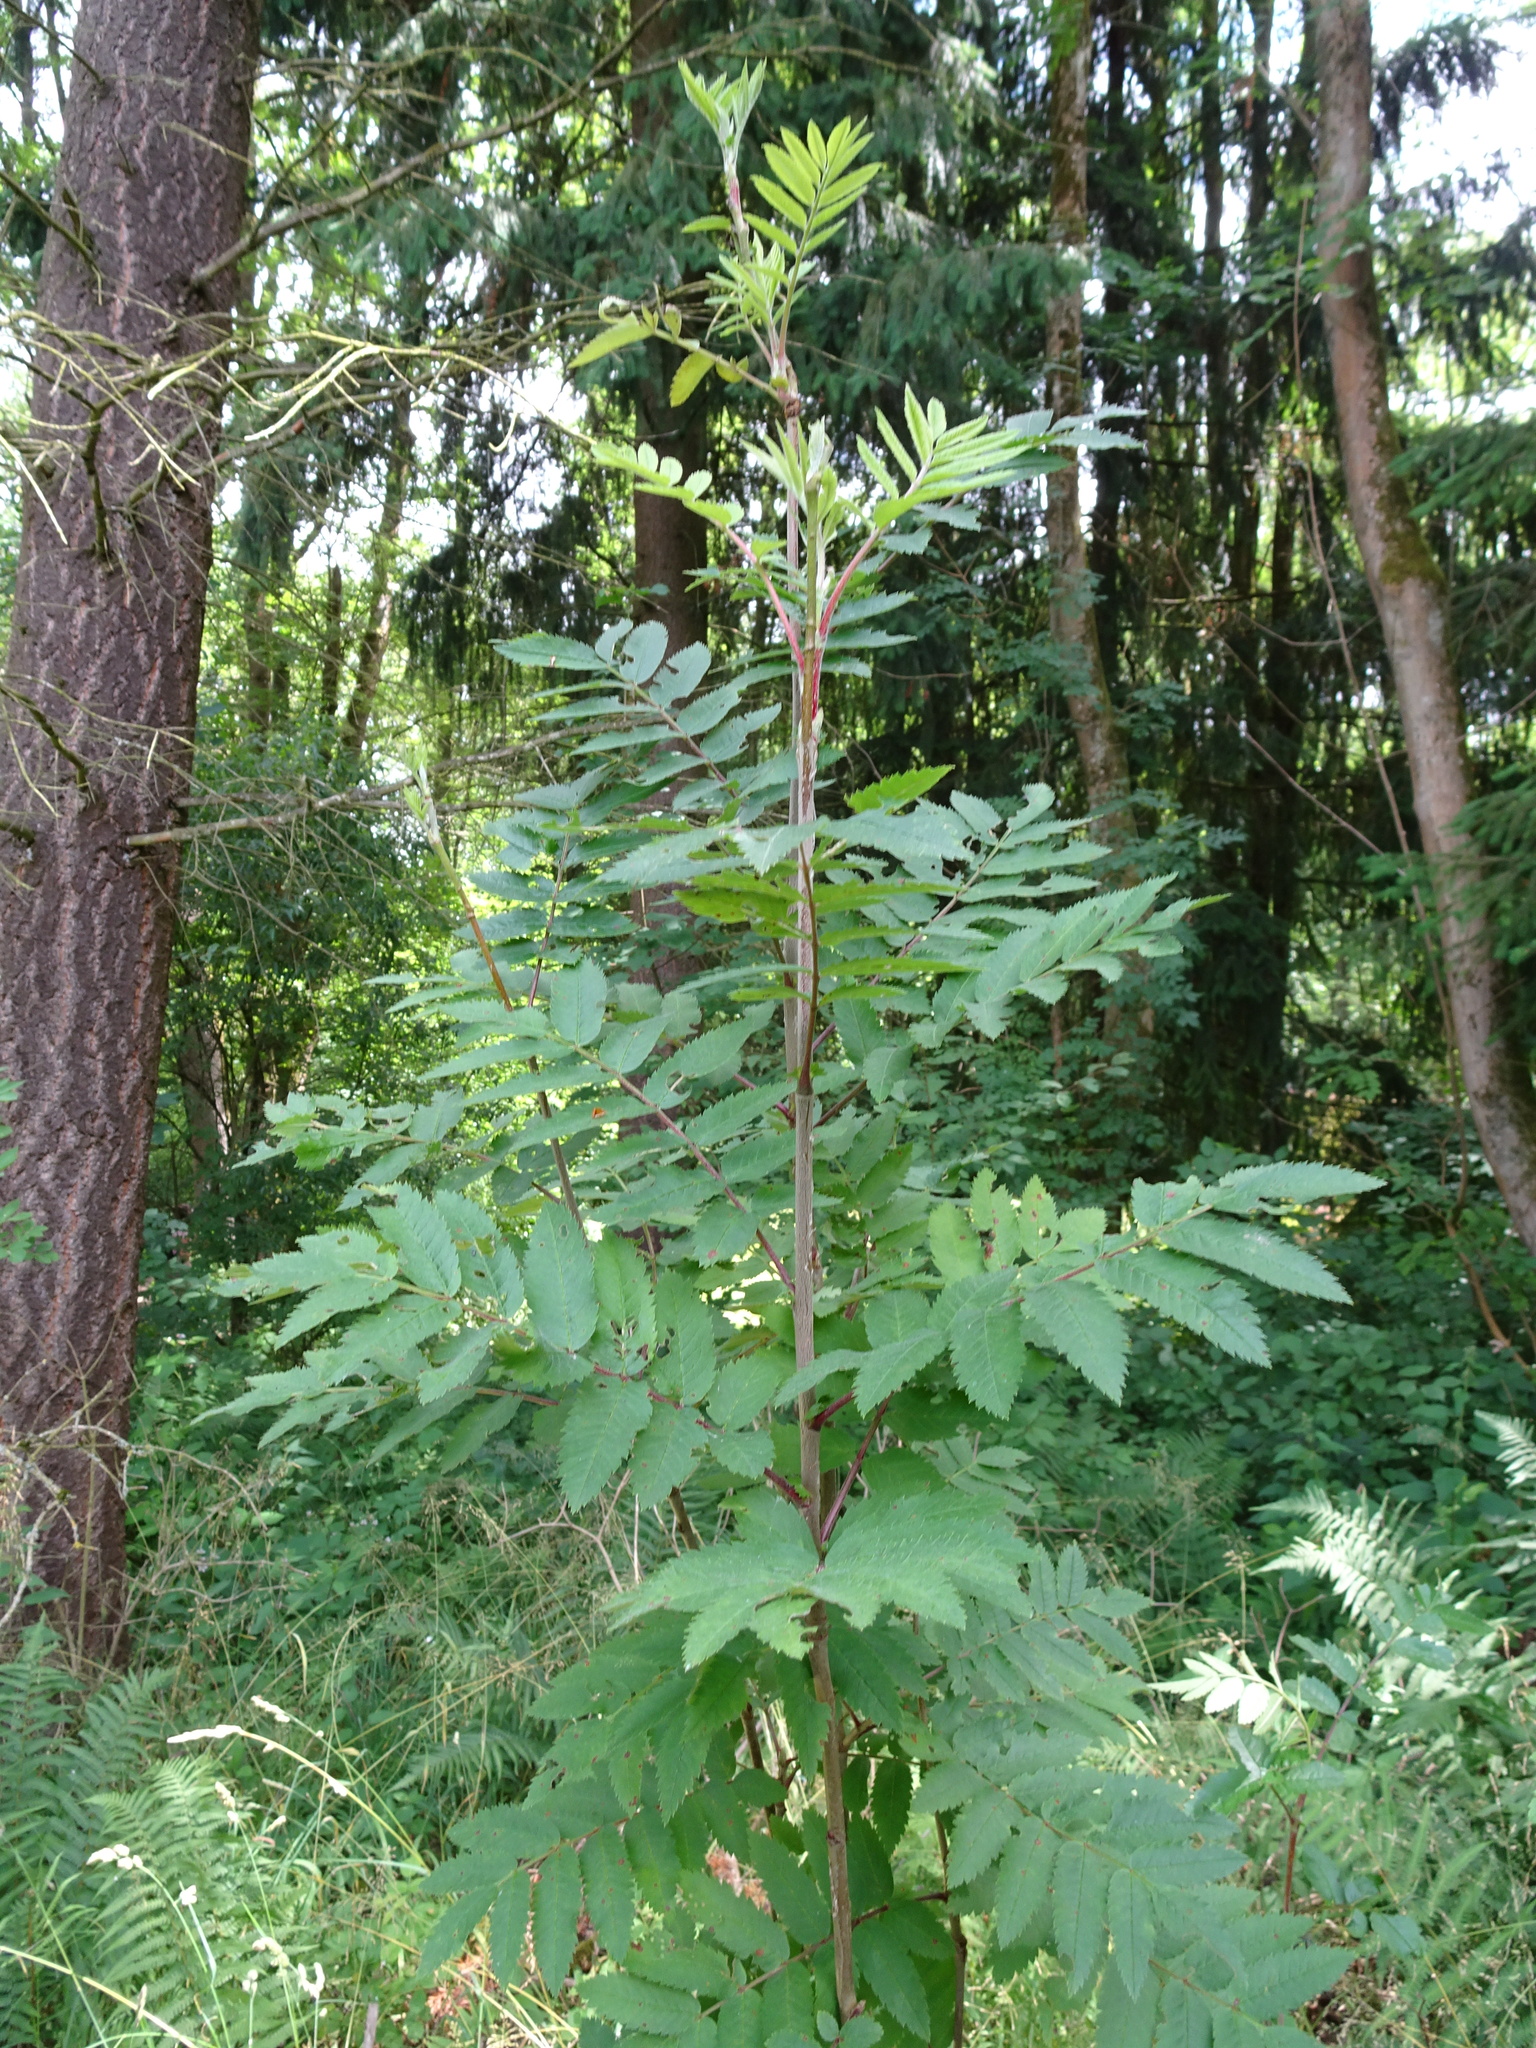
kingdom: Plantae
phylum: Tracheophyta
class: Magnoliopsida
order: Rosales
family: Rosaceae
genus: Sorbus
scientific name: Sorbus aucuparia
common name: Rowan
